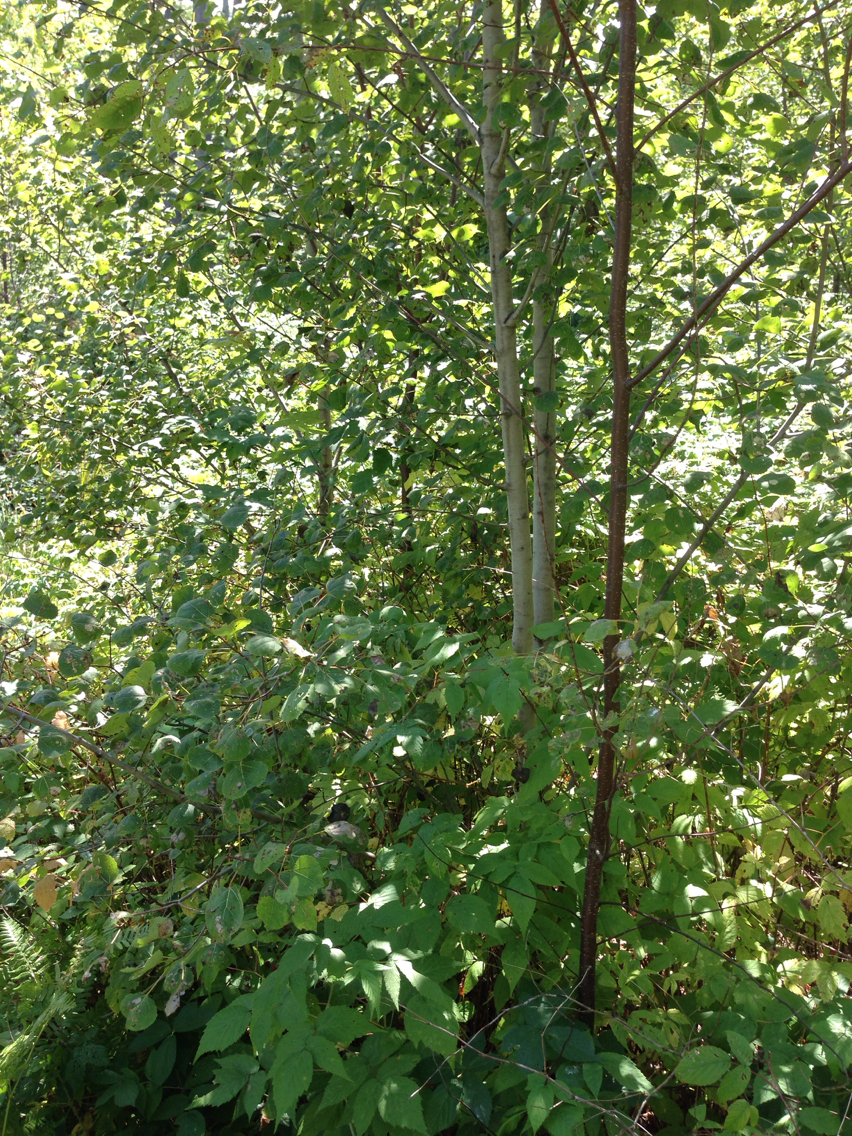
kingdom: Plantae
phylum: Tracheophyta
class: Magnoliopsida
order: Malpighiales
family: Salicaceae
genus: Populus
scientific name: Populus tremuloides
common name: Quaking aspen
